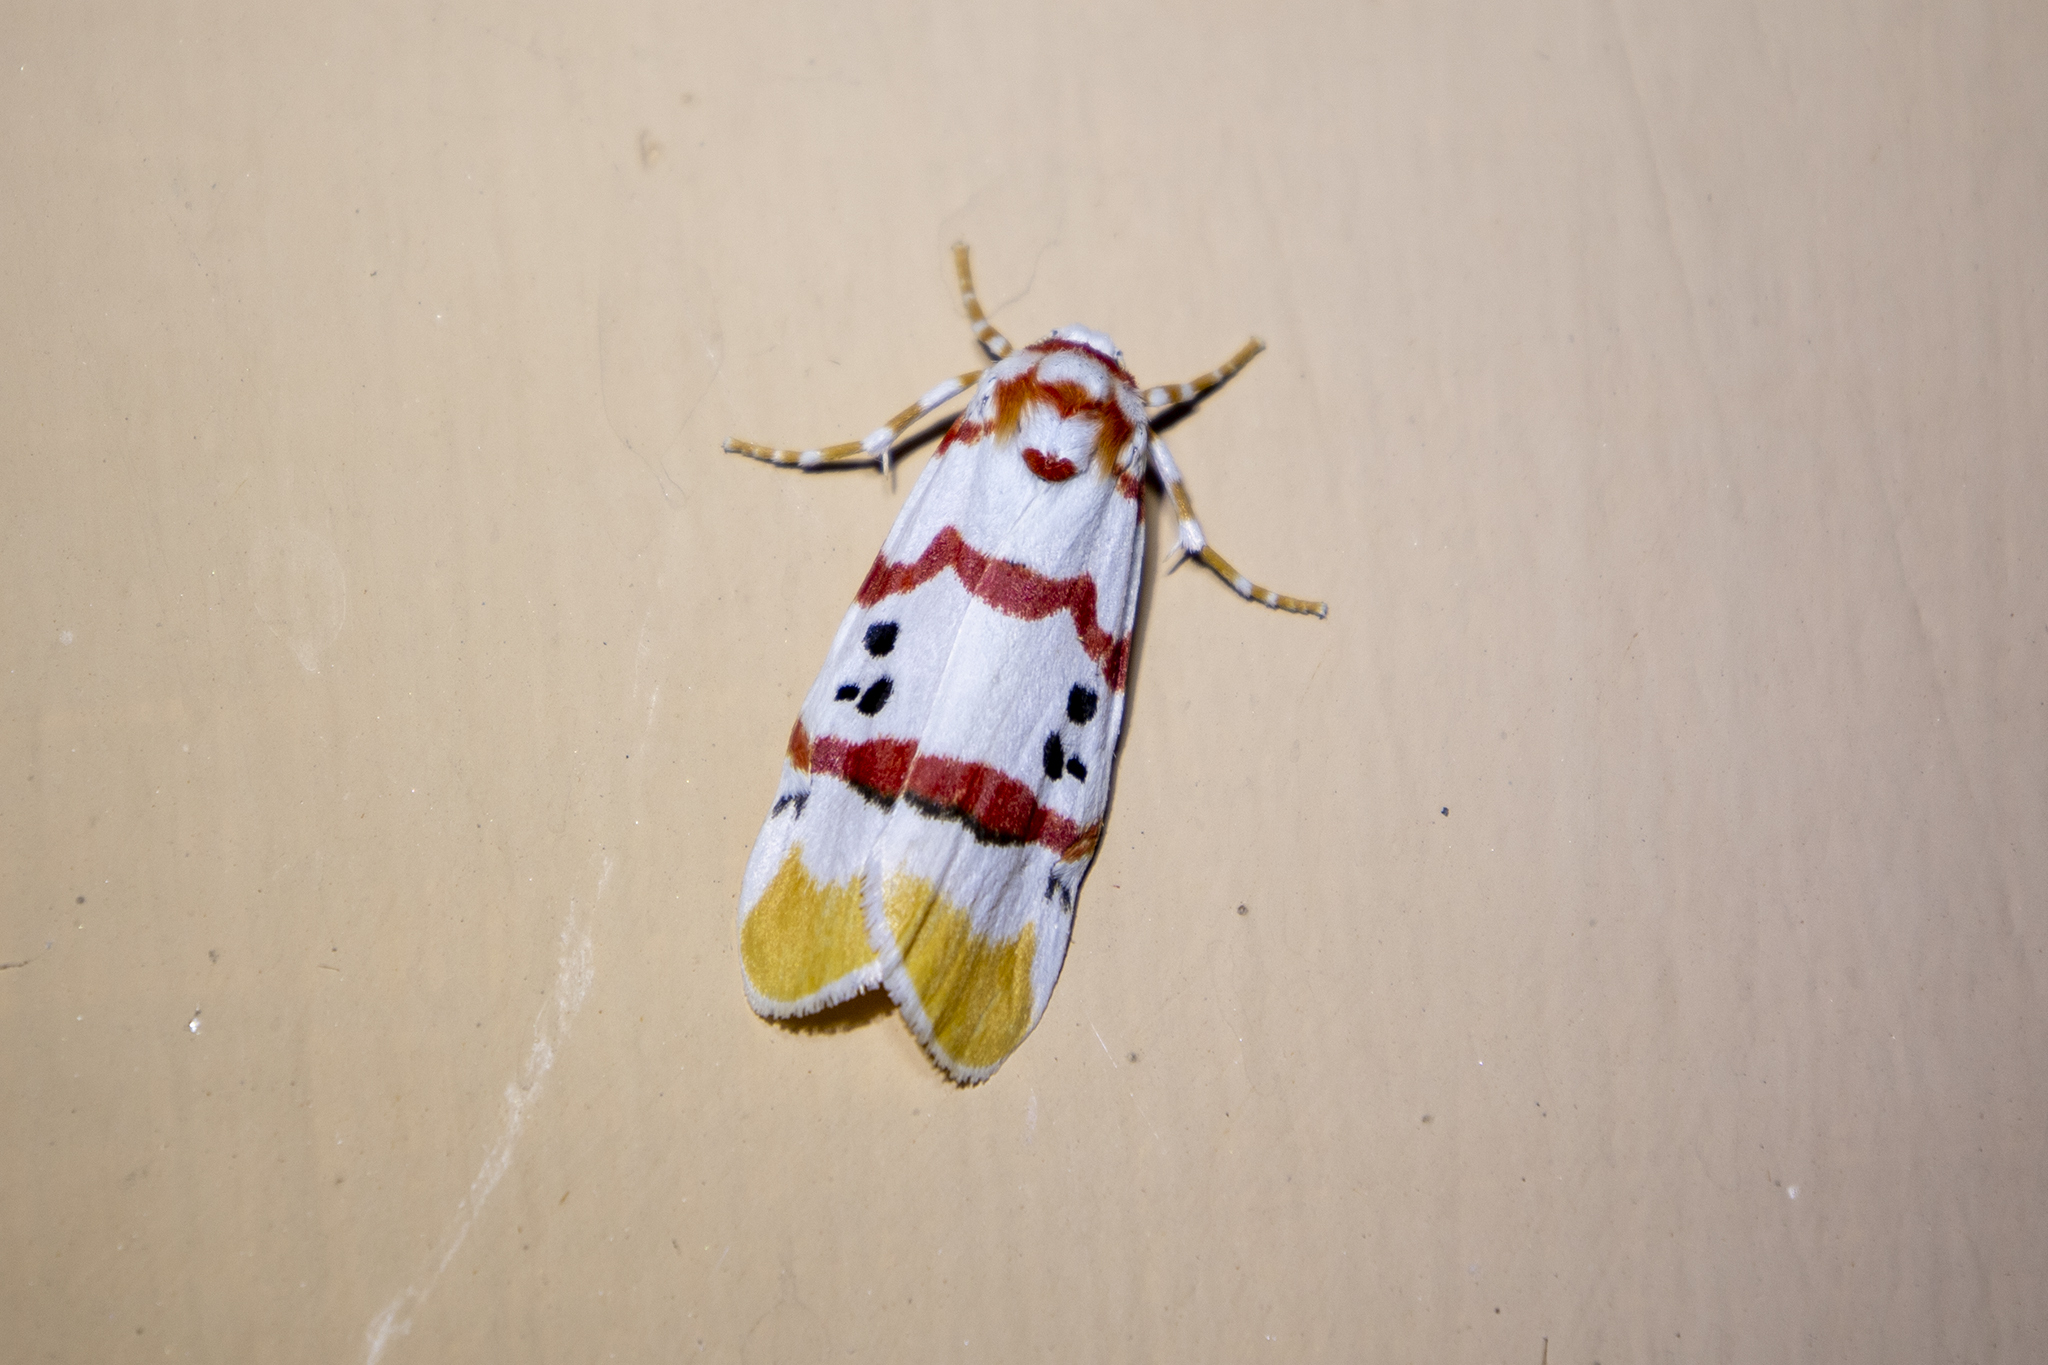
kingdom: Animalia
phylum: Arthropoda
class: Insecta
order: Lepidoptera
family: Erebidae
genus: Cyana
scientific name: Cyana neopuer
